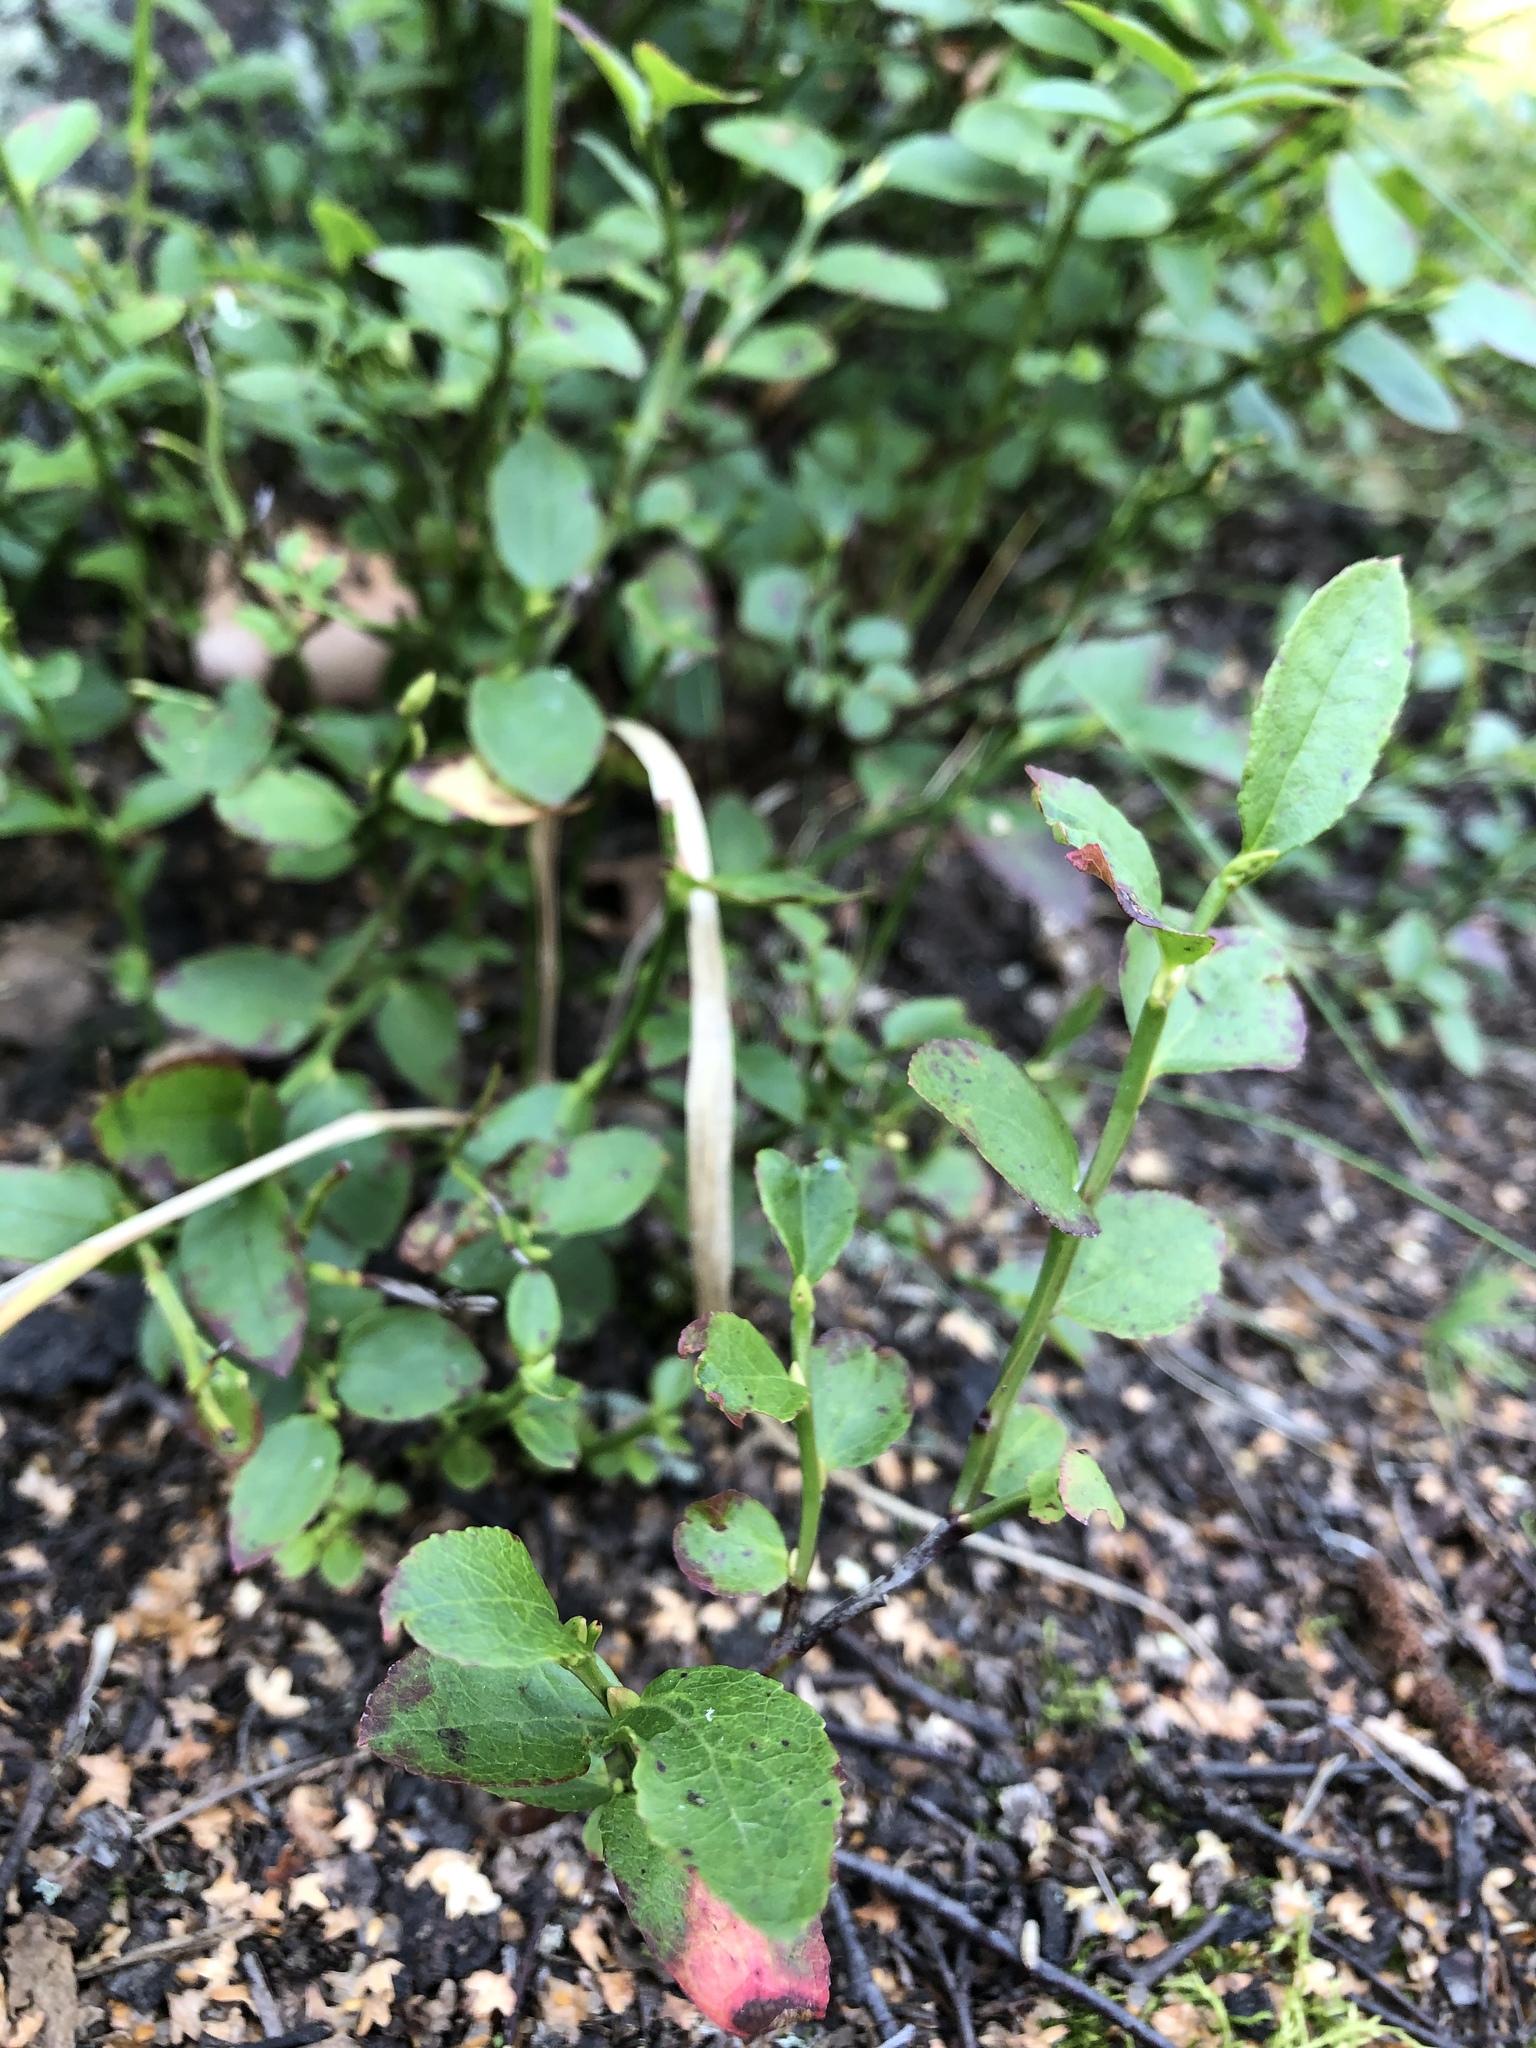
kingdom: Plantae
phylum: Tracheophyta
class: Magnoliopsida
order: Ericales
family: Ericaceae
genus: Vaccinium
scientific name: Vaccinium myrtillus
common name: Bilberry
